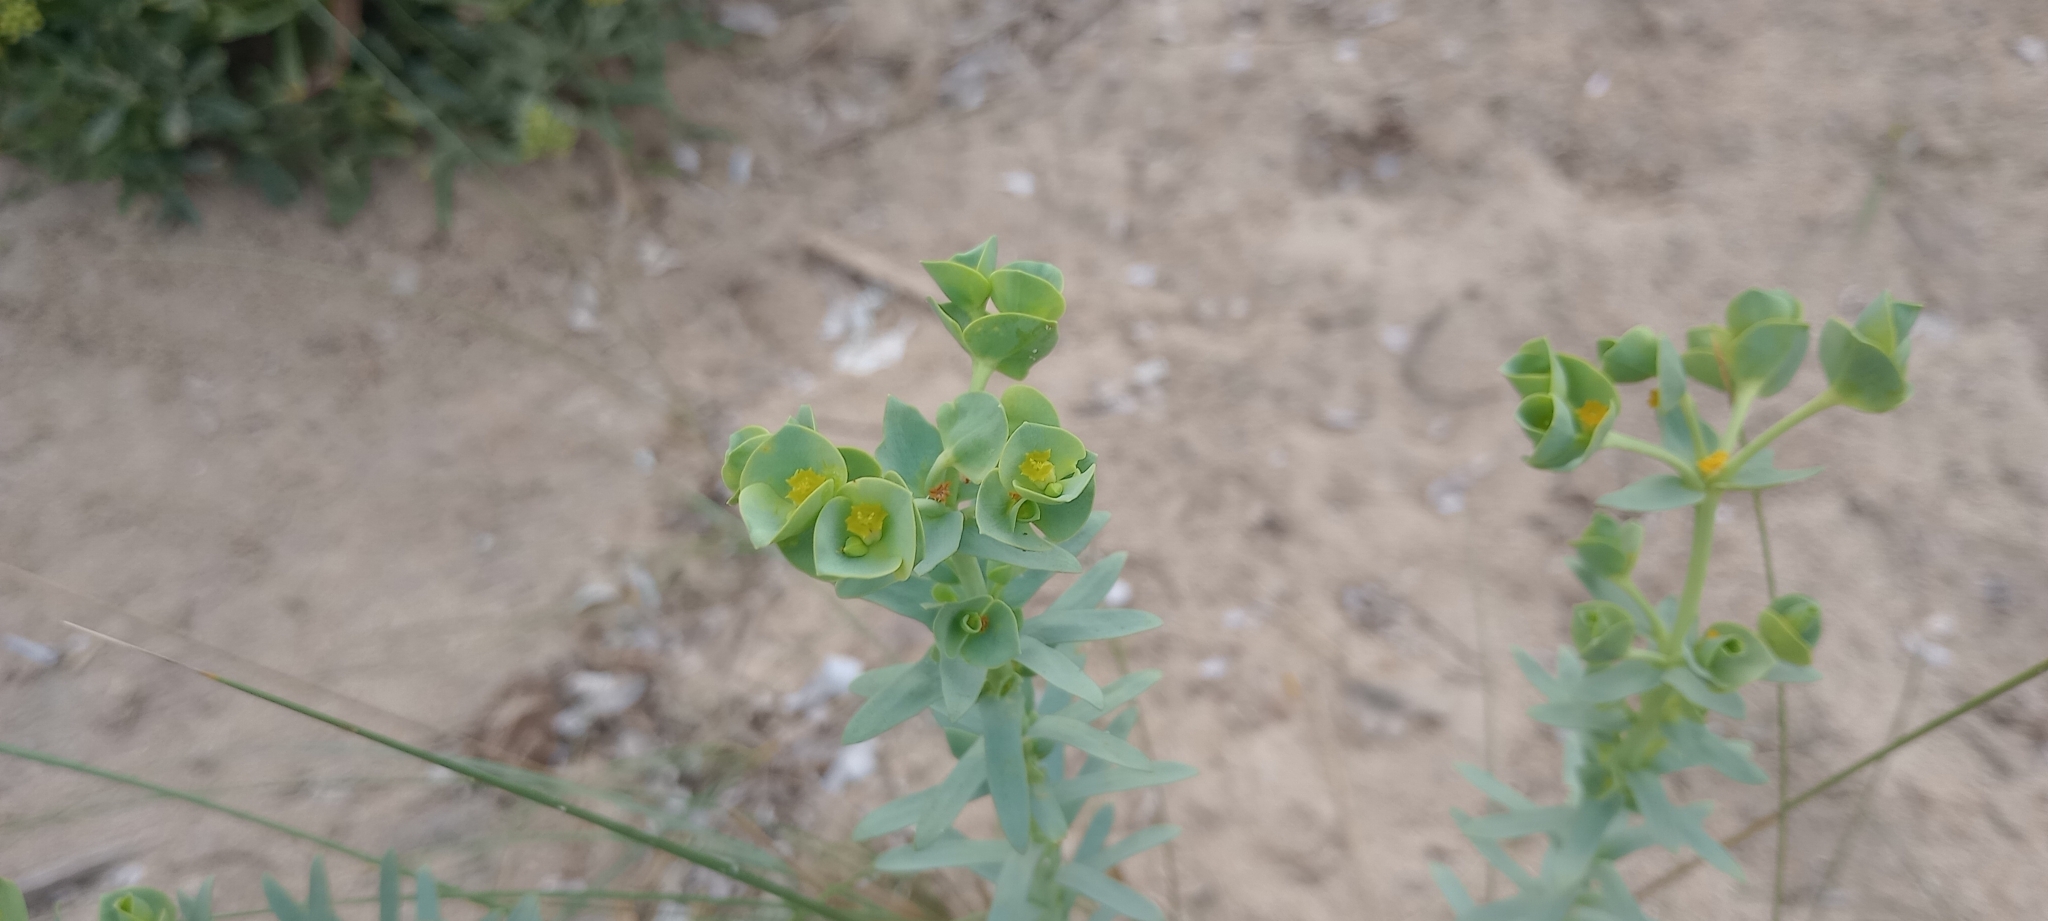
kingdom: Plantae
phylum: Tracheophyta
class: Magnoliopsida
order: Malpighiales
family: Euphorbiaceae
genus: Euphorbia
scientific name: Euphorbia paralias
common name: Sea spurge
